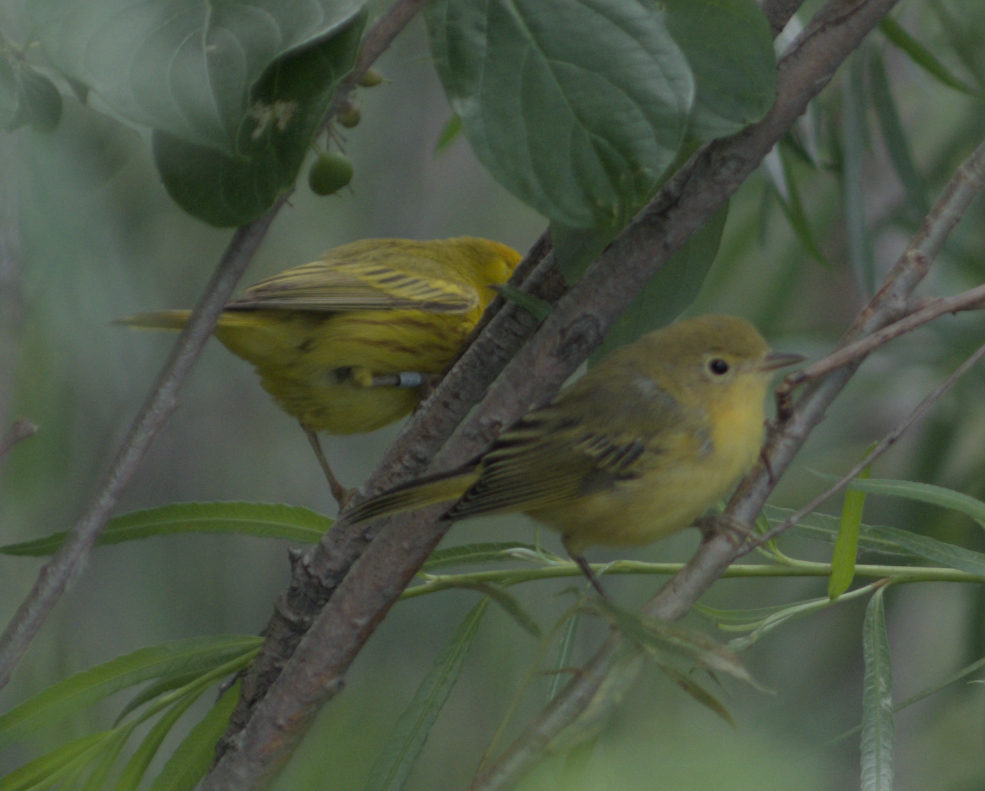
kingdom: Animalia
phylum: Chordata
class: Aves
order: Passeriformes
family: Parulidae
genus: Setophaga
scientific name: Setophaga petechia
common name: Yellow warbler
